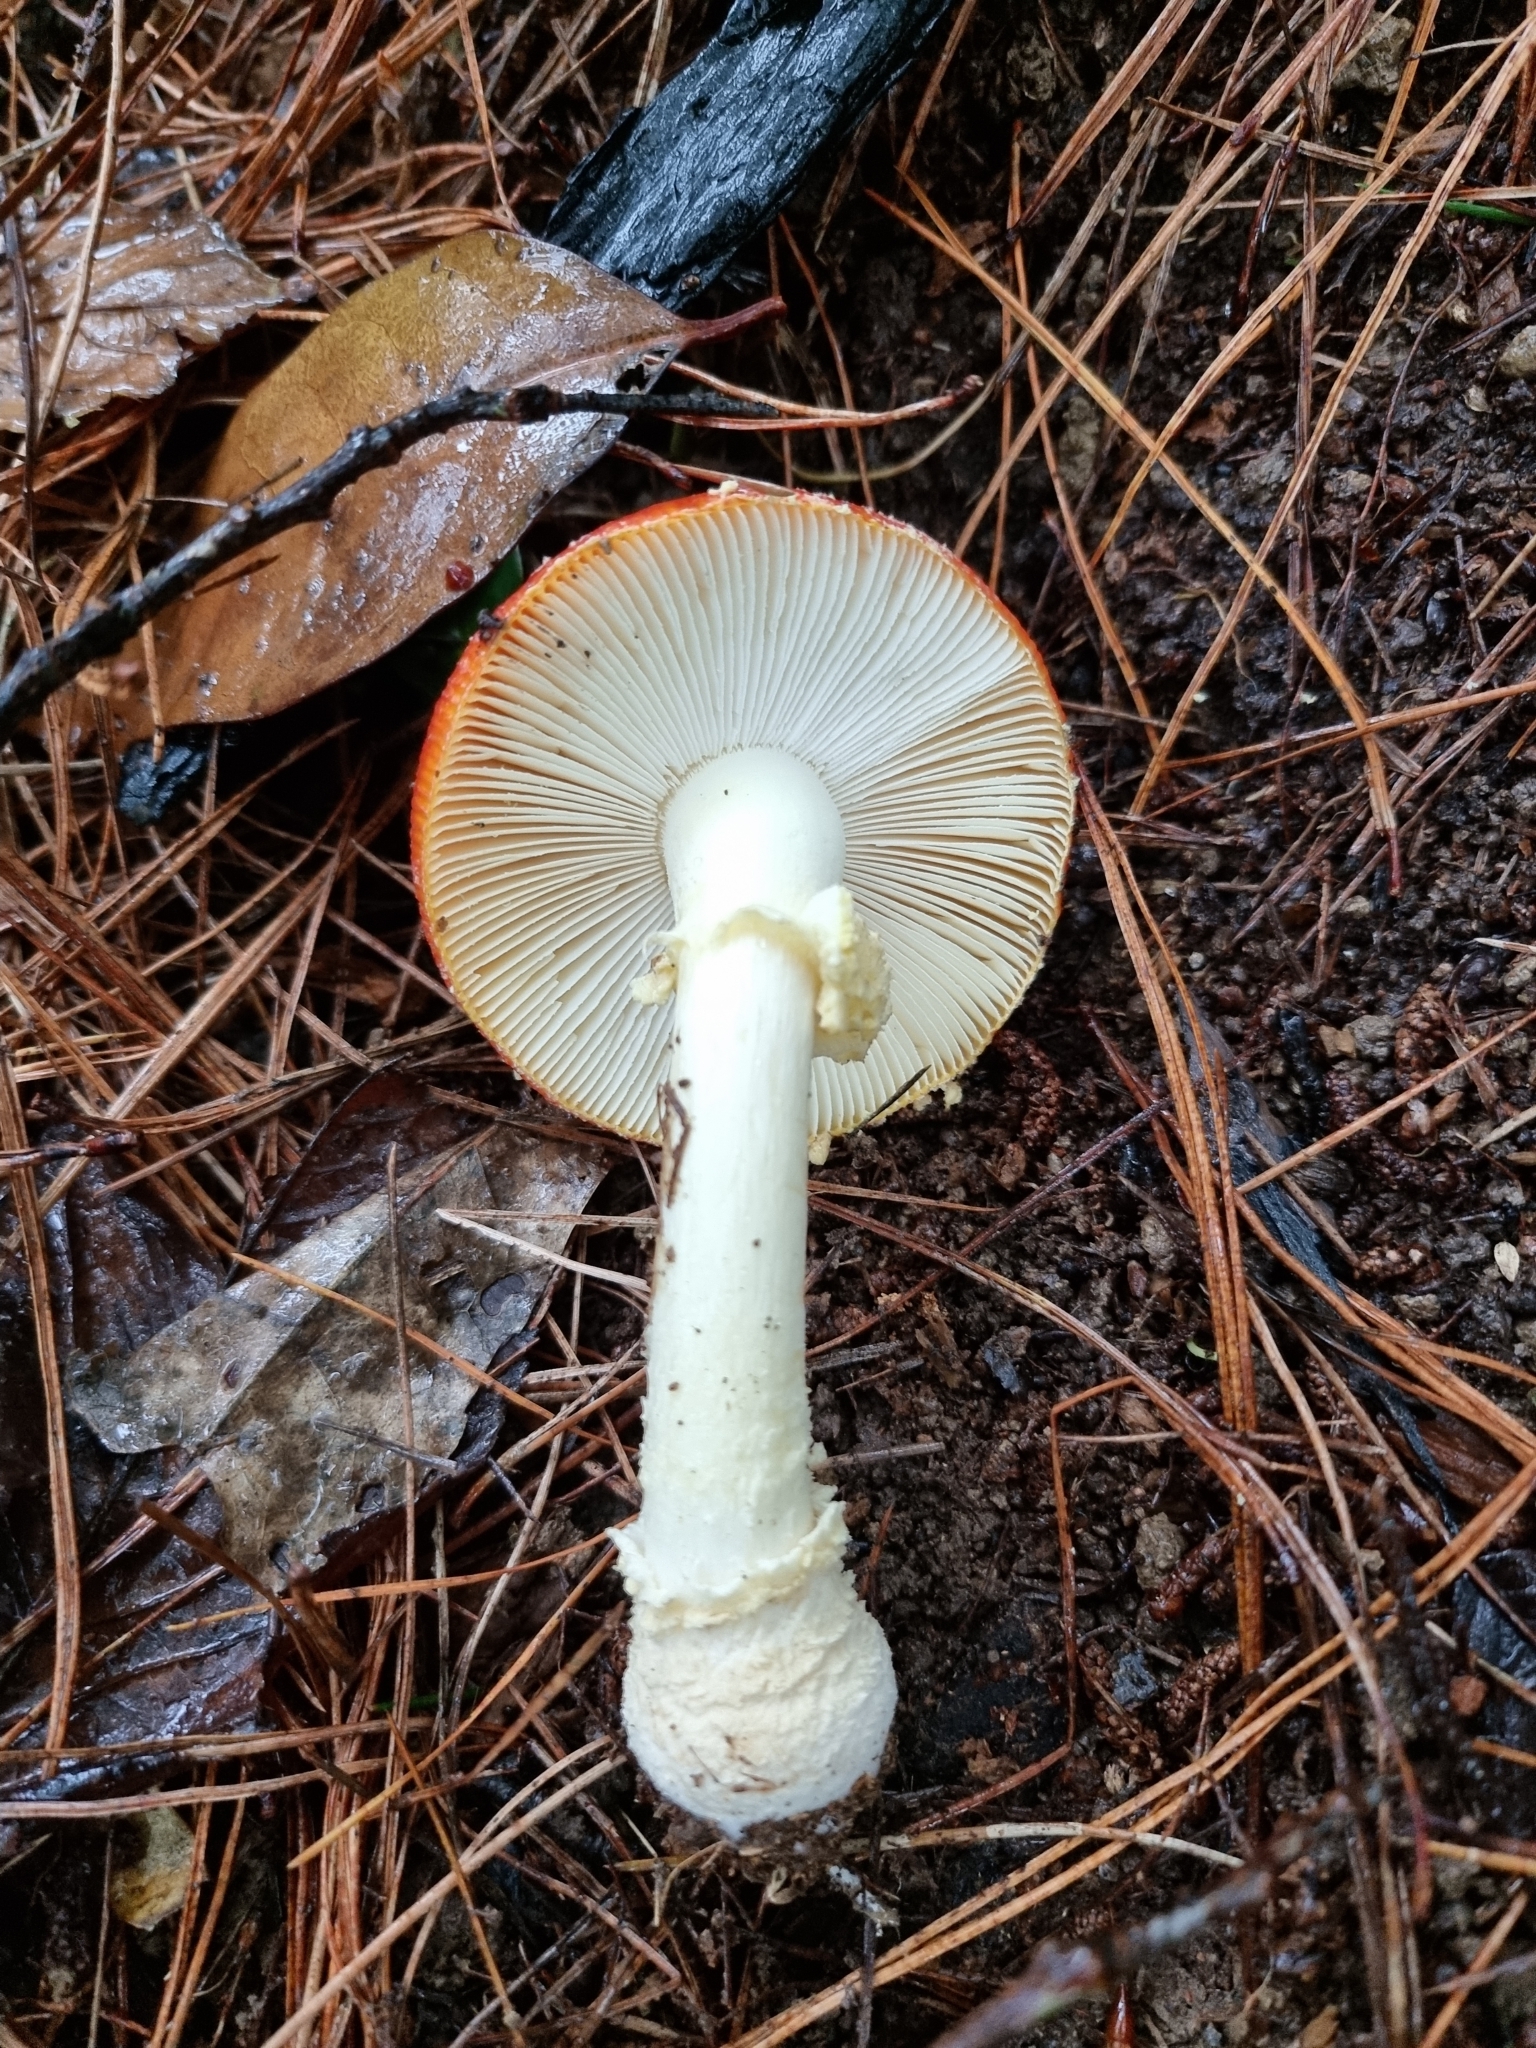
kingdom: Fungi
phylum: Basidiomycota
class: Agaricomycetes
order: Agaricales
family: Amanitaceae
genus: Amanita
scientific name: Amanita muscaria
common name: Fly agaric
